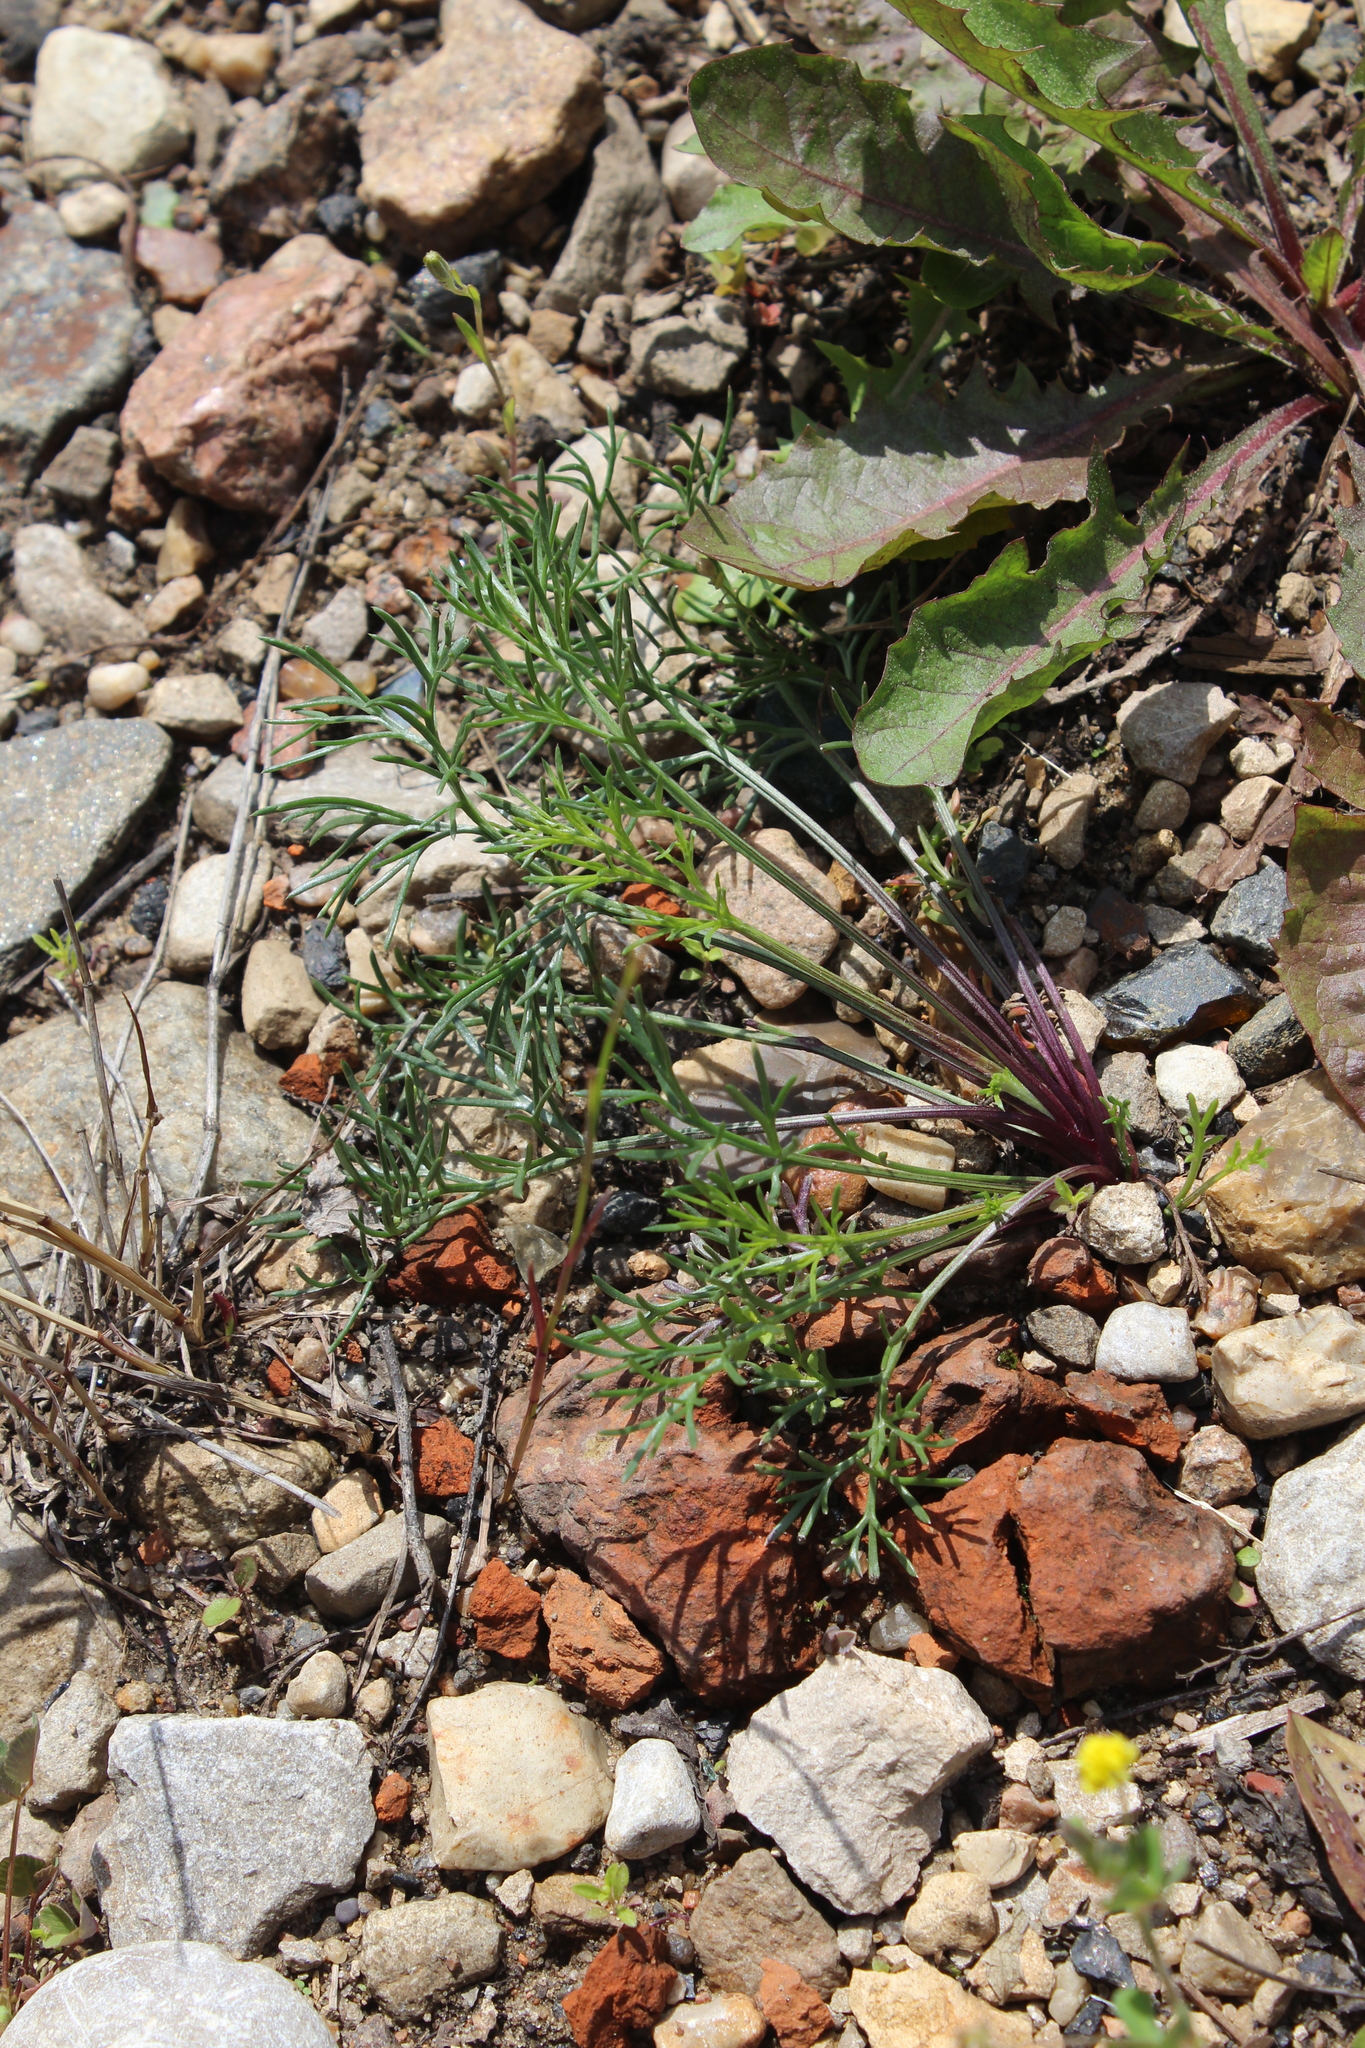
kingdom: Plantae
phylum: Tracheophyta
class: Magnoliopsida
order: Asterales
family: Asteraceae
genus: Artemisia
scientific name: Artemisia campestris
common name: Field wormwood
